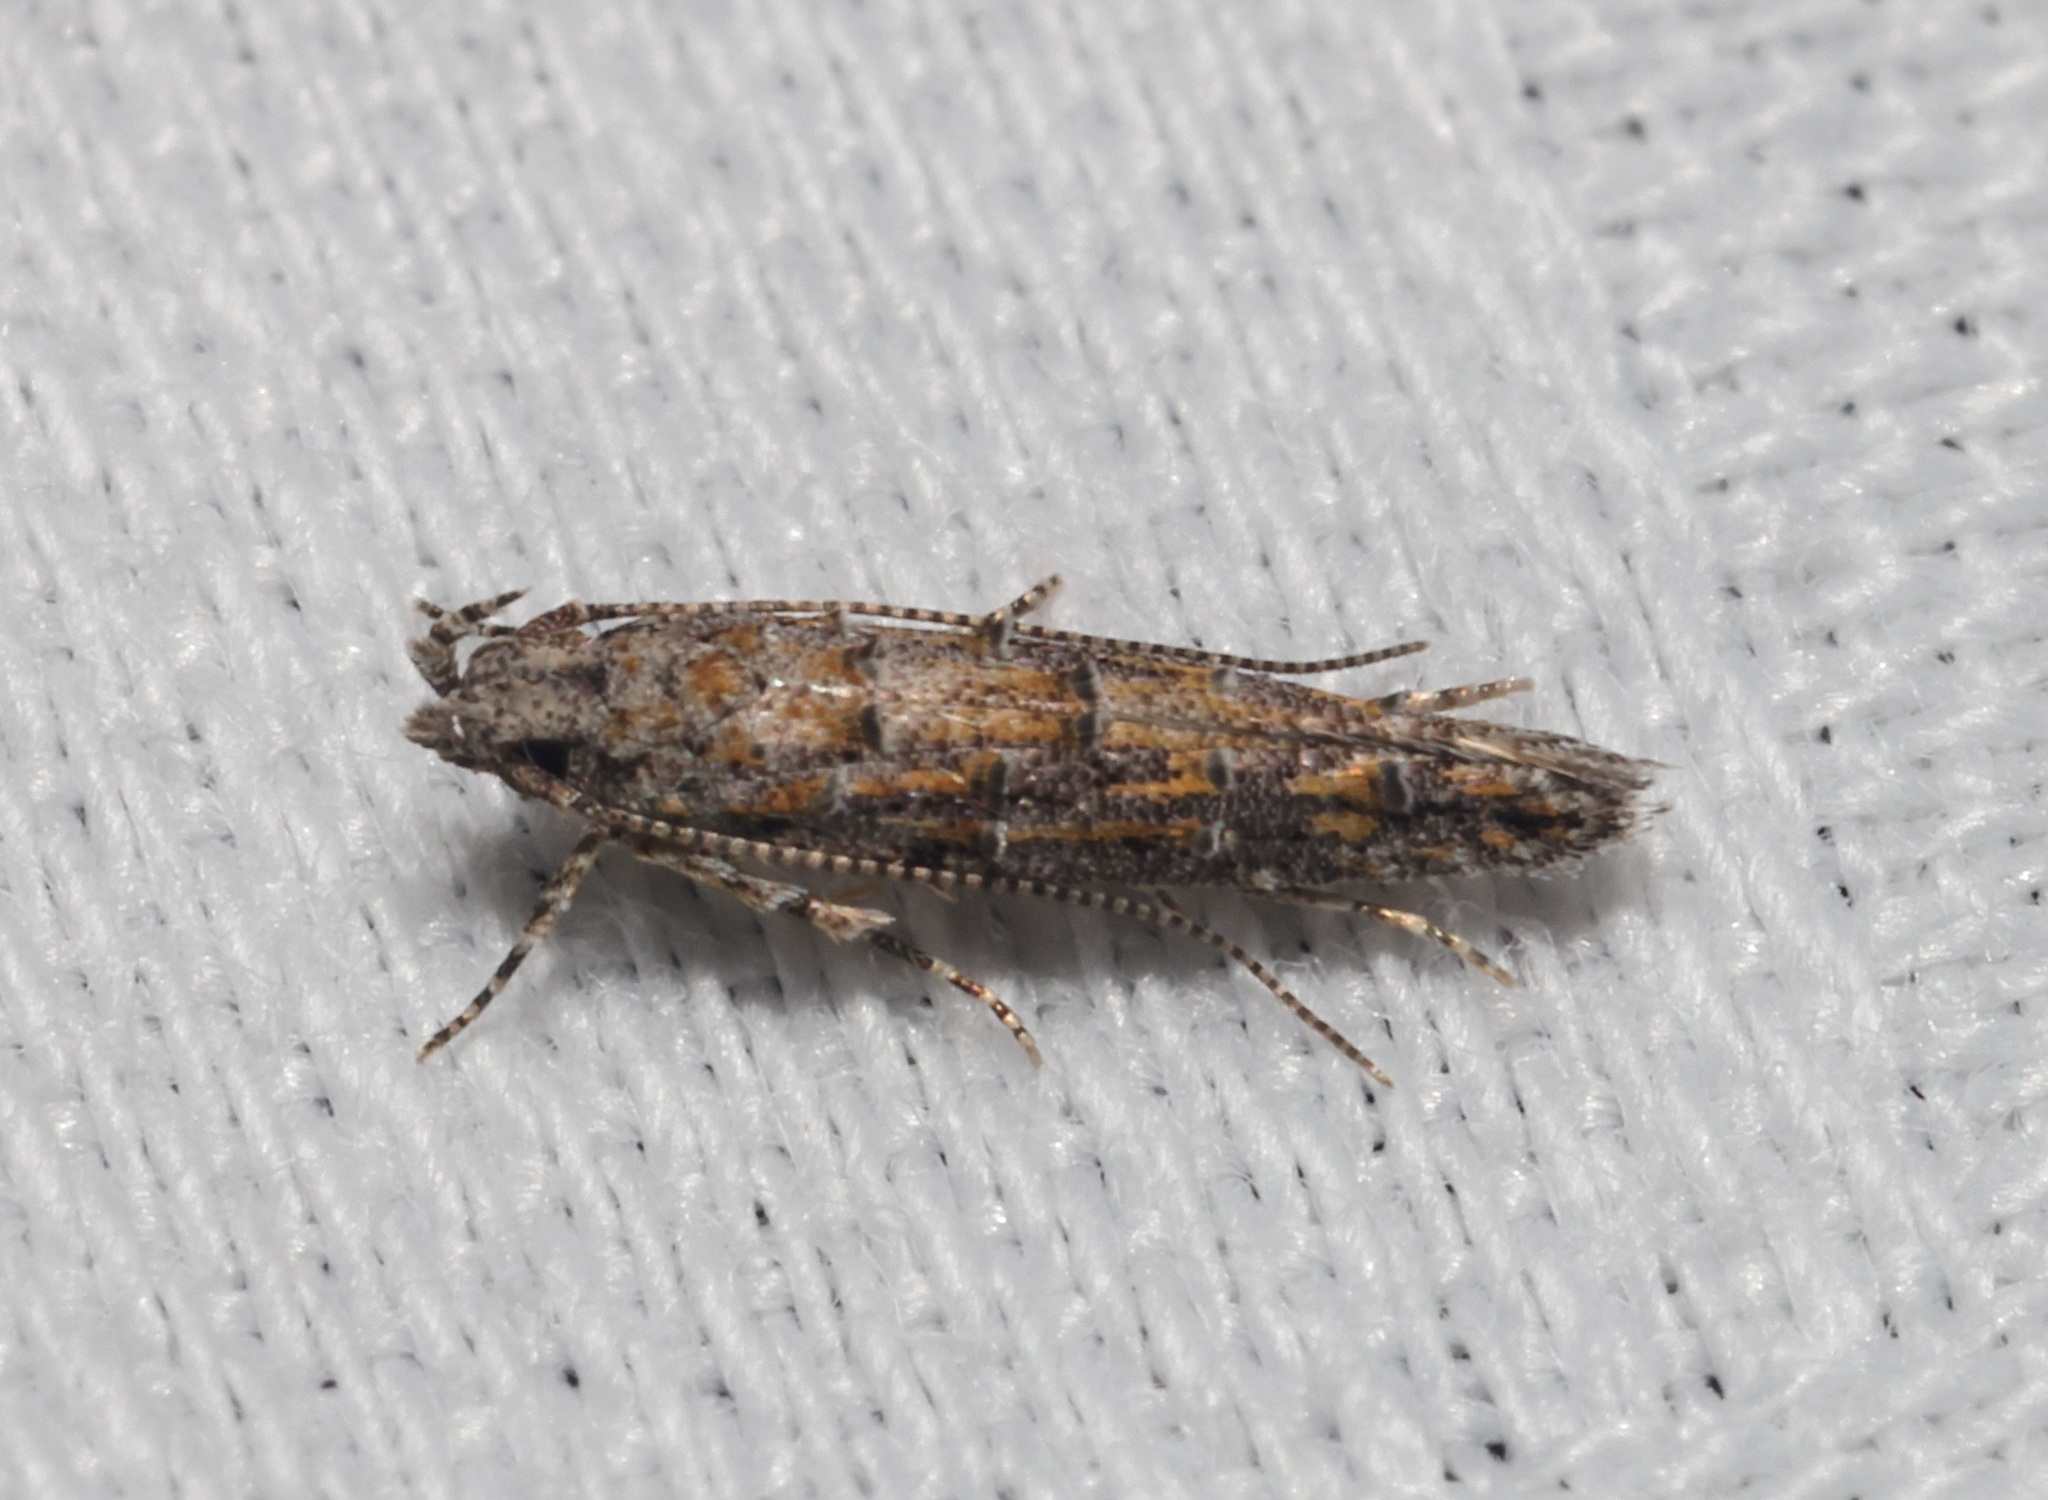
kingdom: Animalia
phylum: Arthropoda
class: Insecta
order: Lepidoptera
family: Yponomeutidae
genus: Metharmostis
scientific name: Metharmostis
